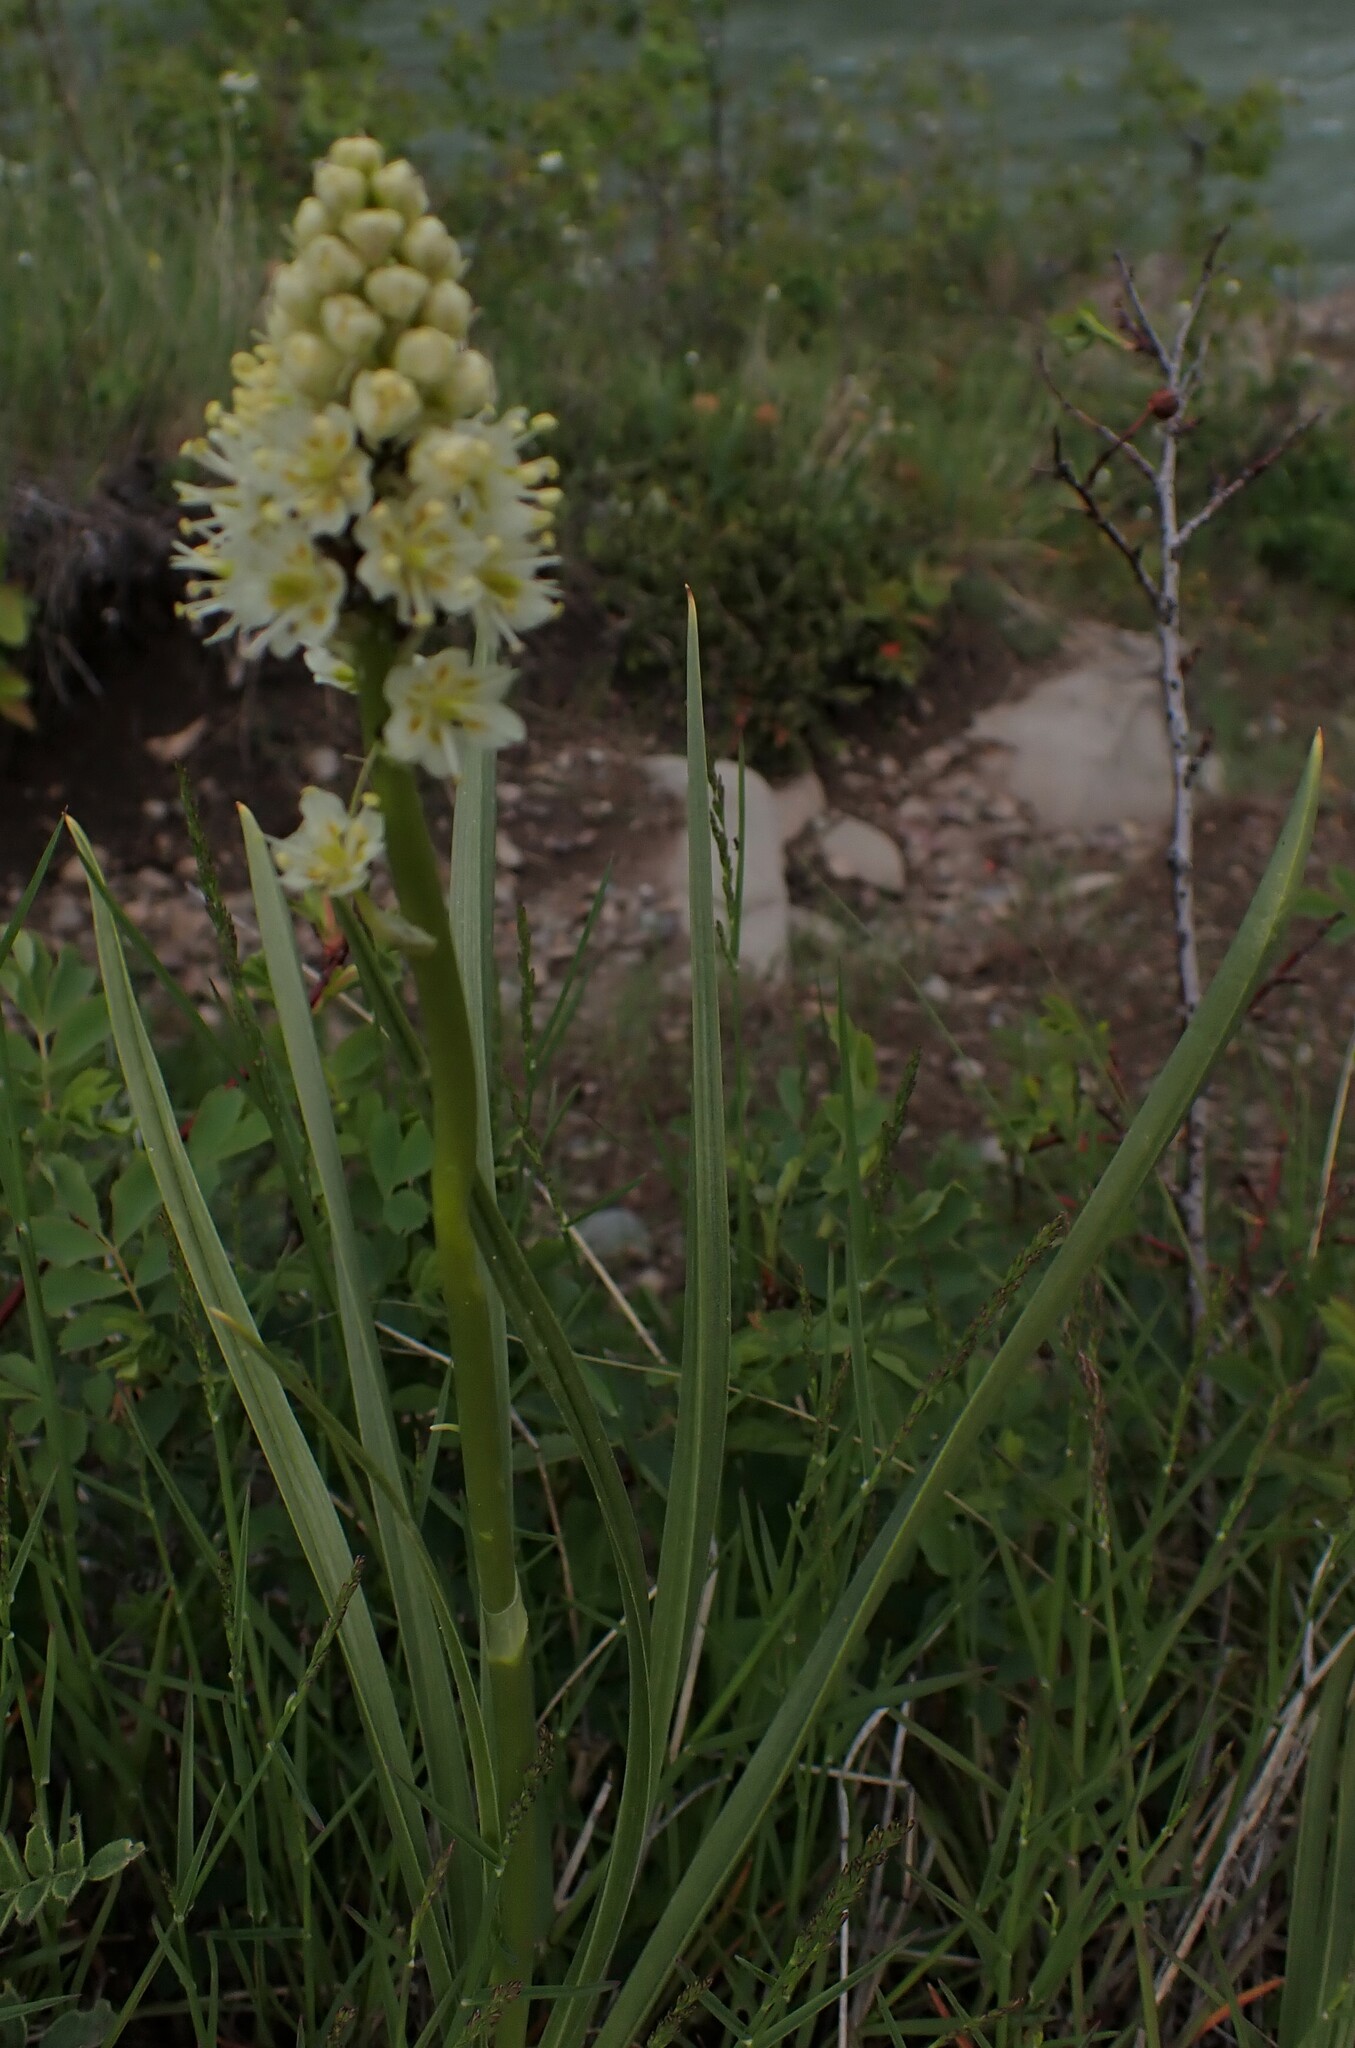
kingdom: Plantae
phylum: Tracheophyta
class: Liliopsida
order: Liliales
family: Melanthiaceae
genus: Toxicoscordion
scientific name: Toxicoscordion venenosum
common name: Meadow death camas
